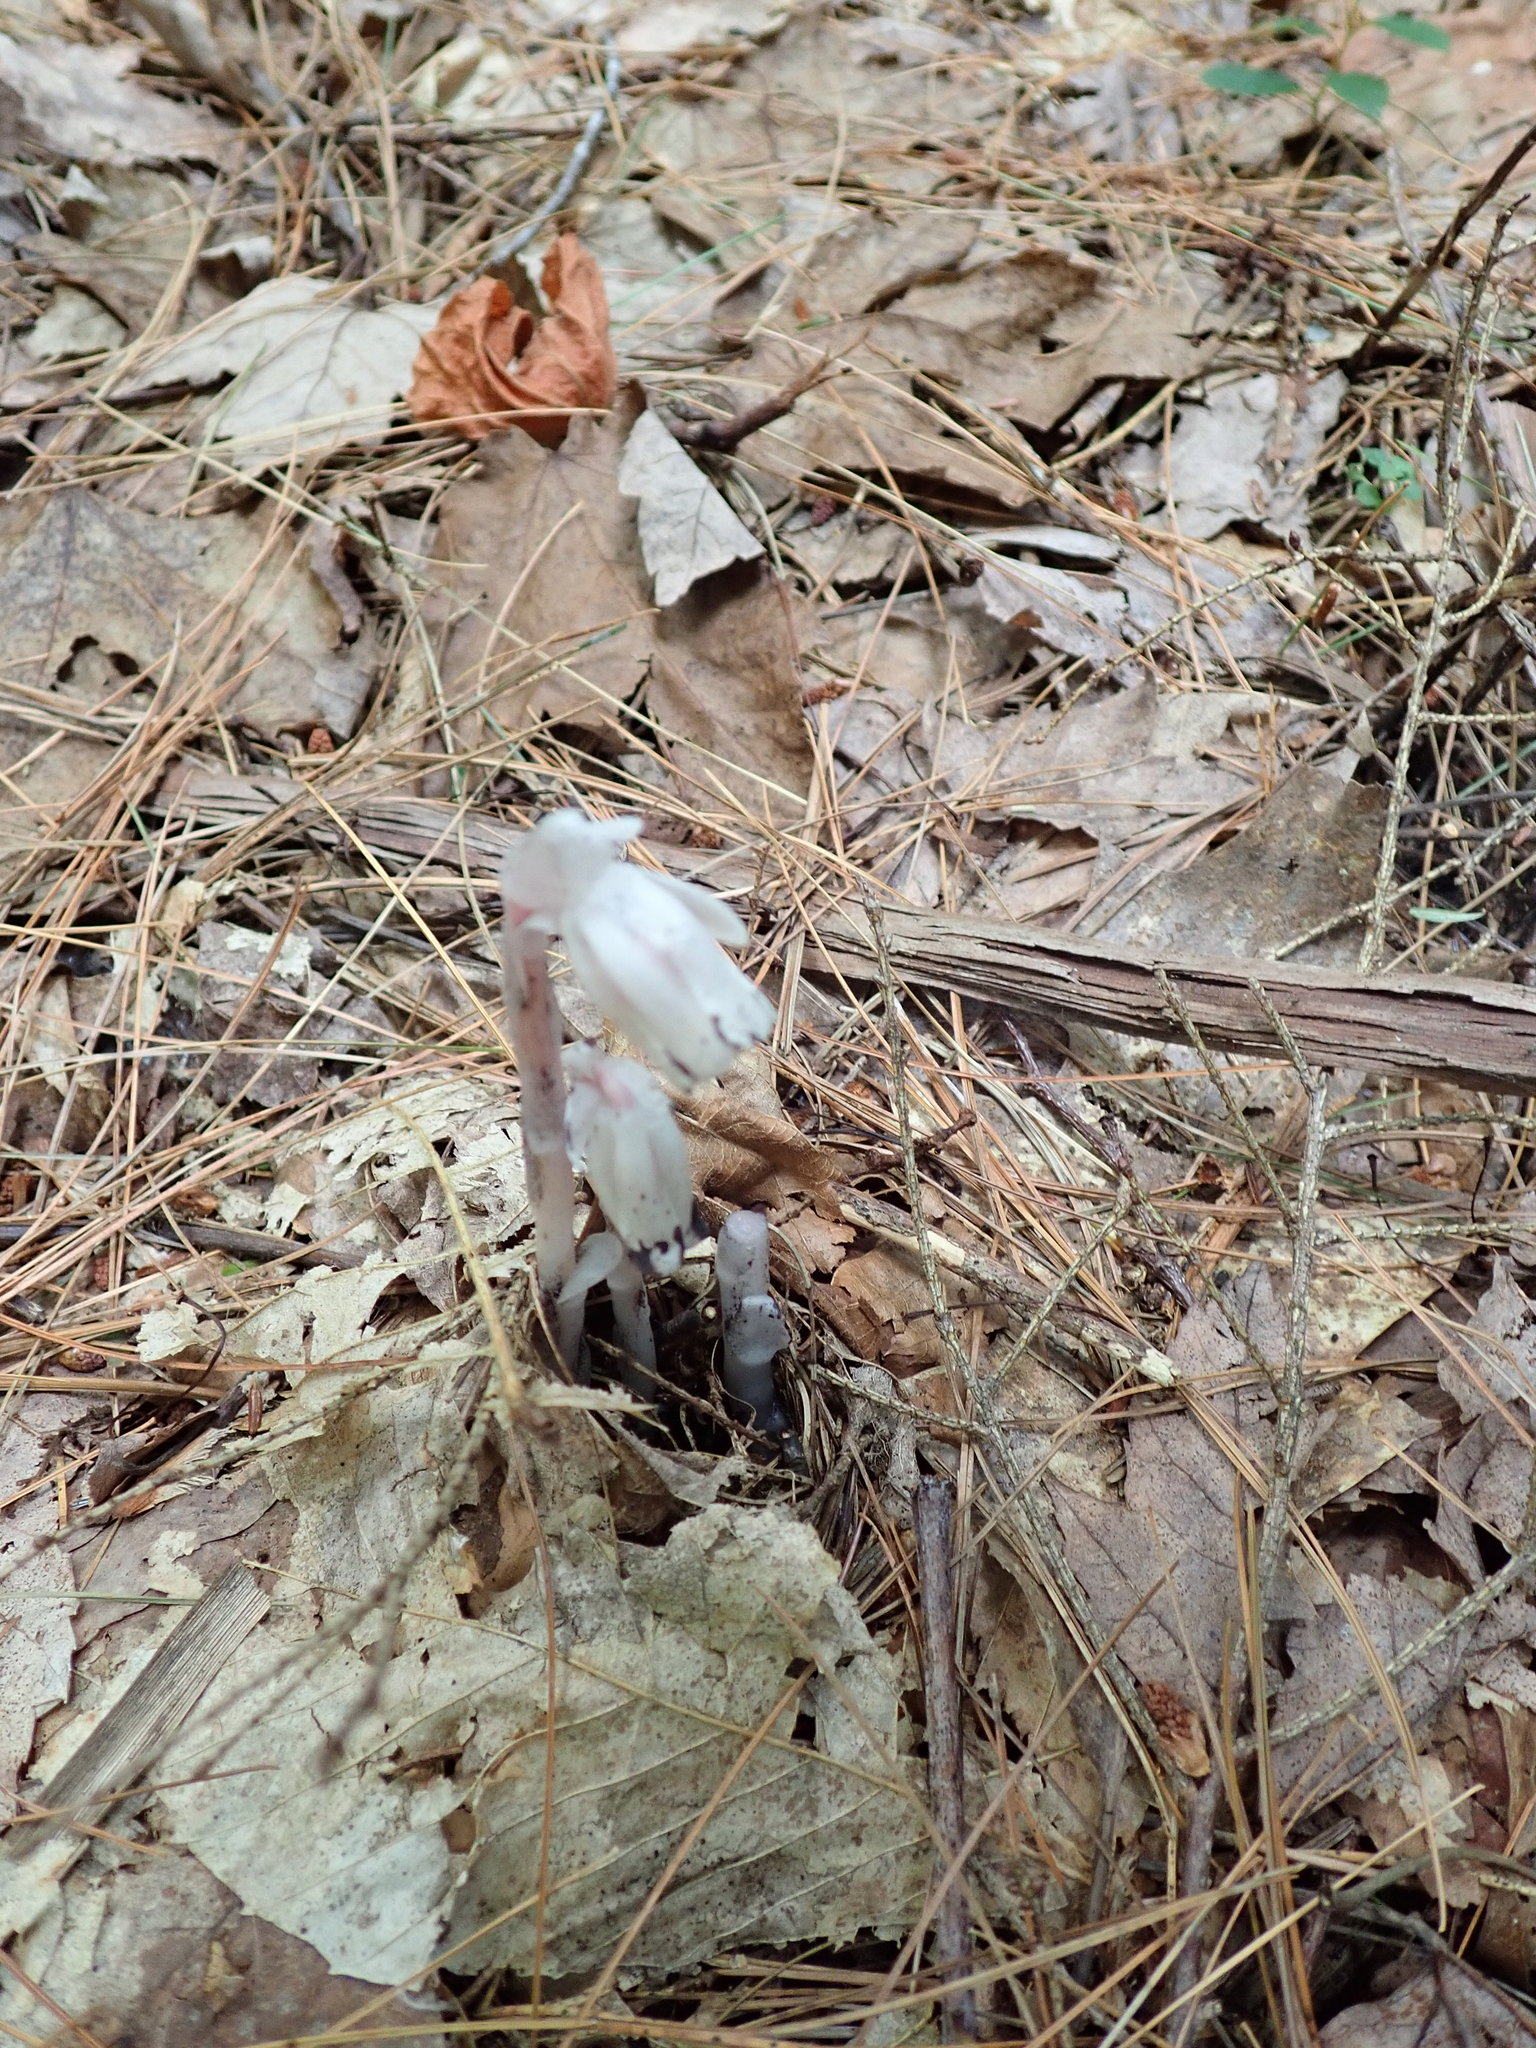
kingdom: Plantae
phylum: Tracheophyta
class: Magnoliopsida
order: Ericales
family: Ericaceae
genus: Monotropa
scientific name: Monotropa uniflora
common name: Convulsion root
